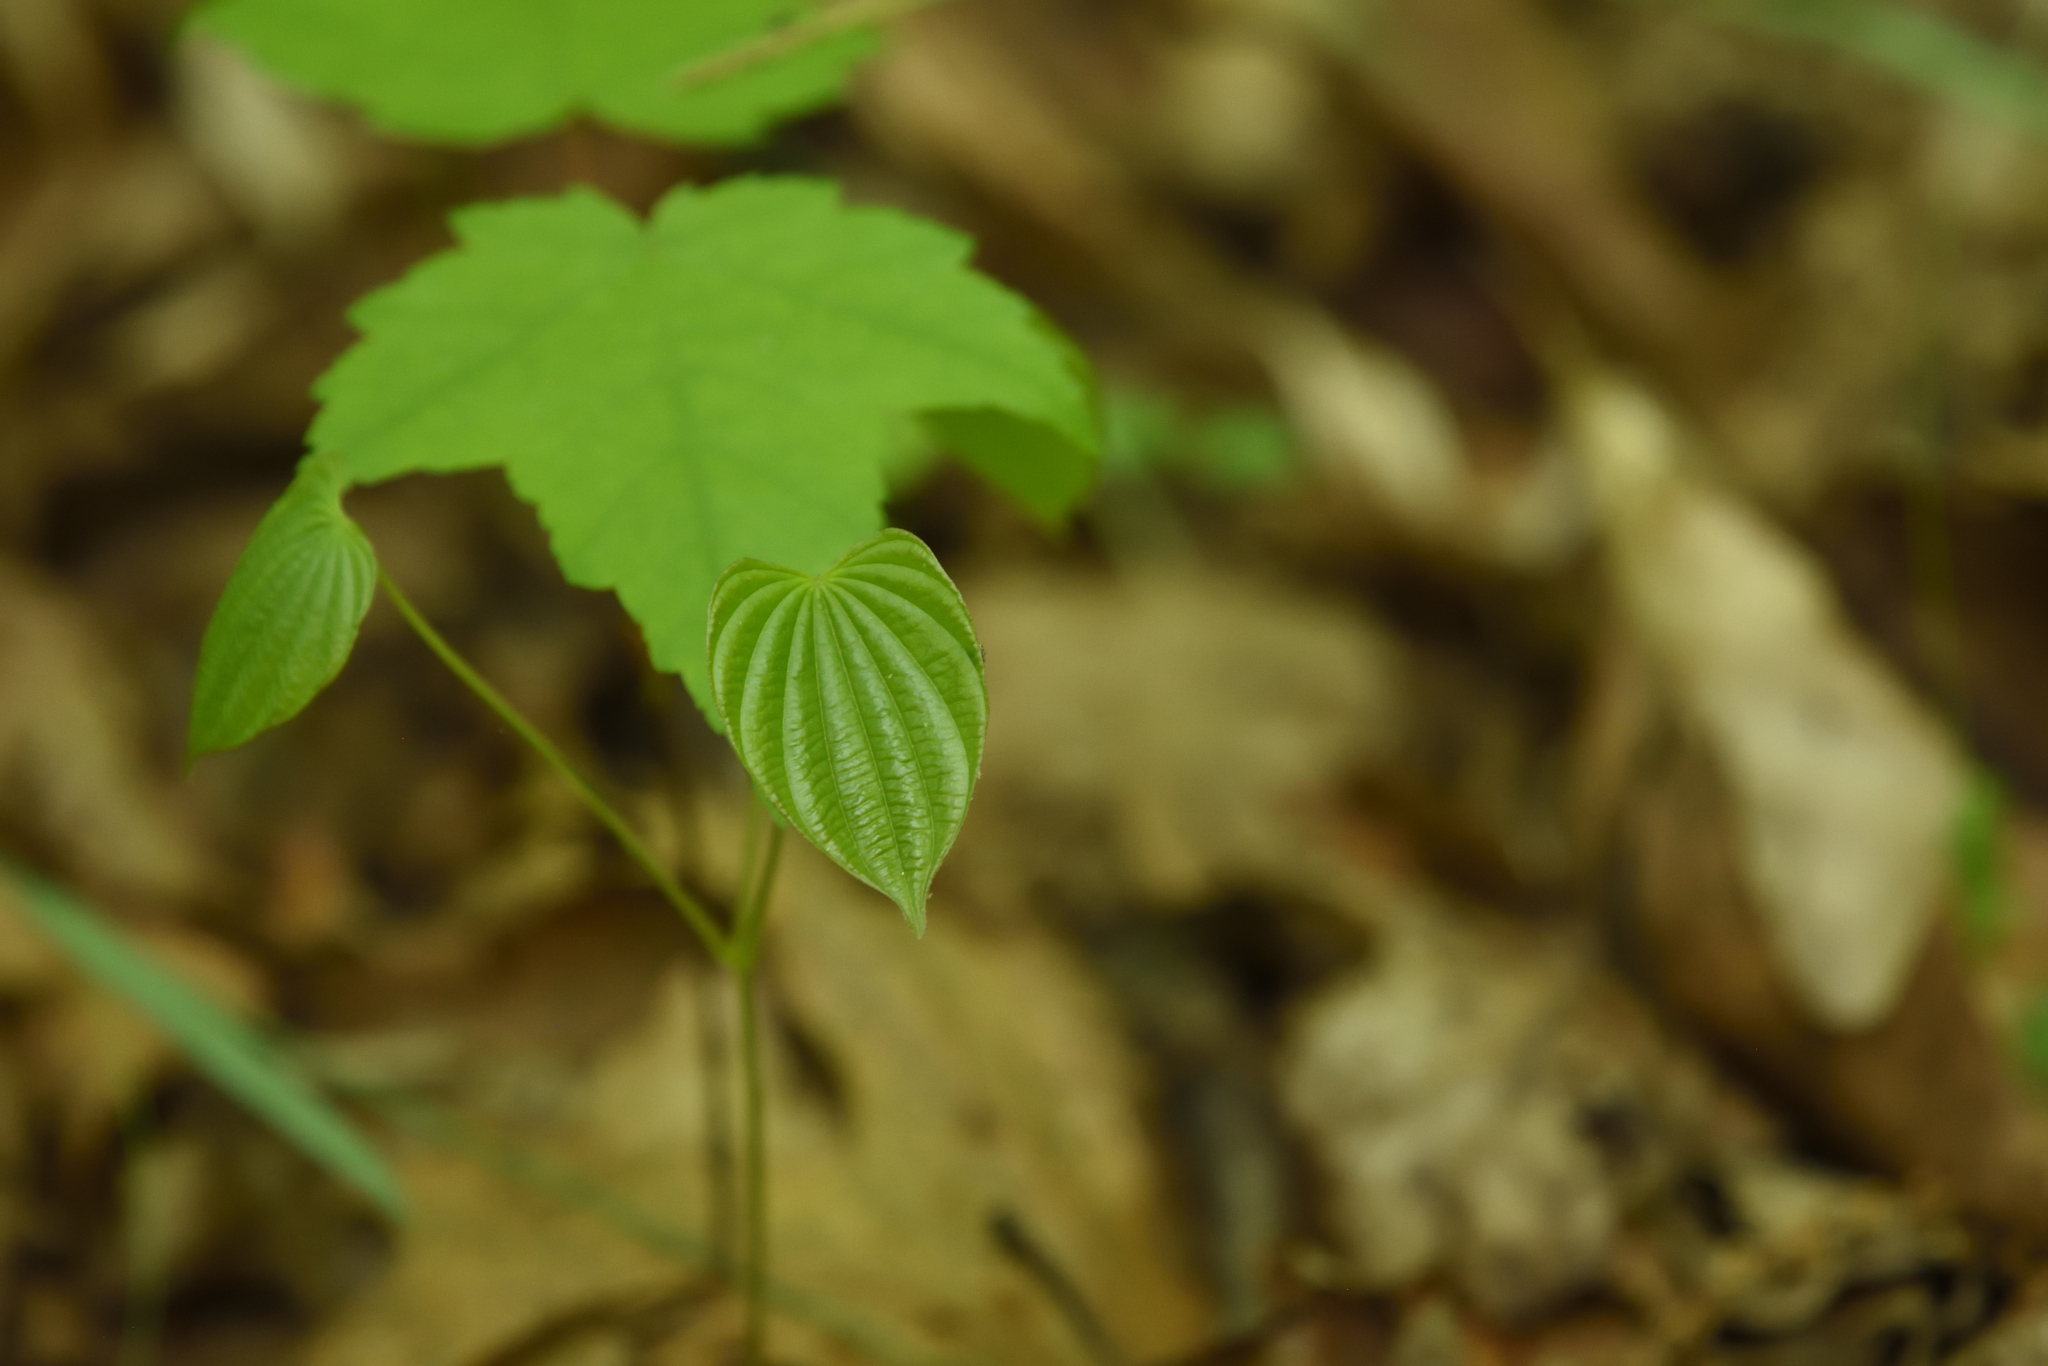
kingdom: Plantae
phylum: Tracheophyta
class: Liliopsida
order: Dioscoreales
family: Dioscoreaceae
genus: Dioscorea
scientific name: Dioscorea villosa
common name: Wild yam
